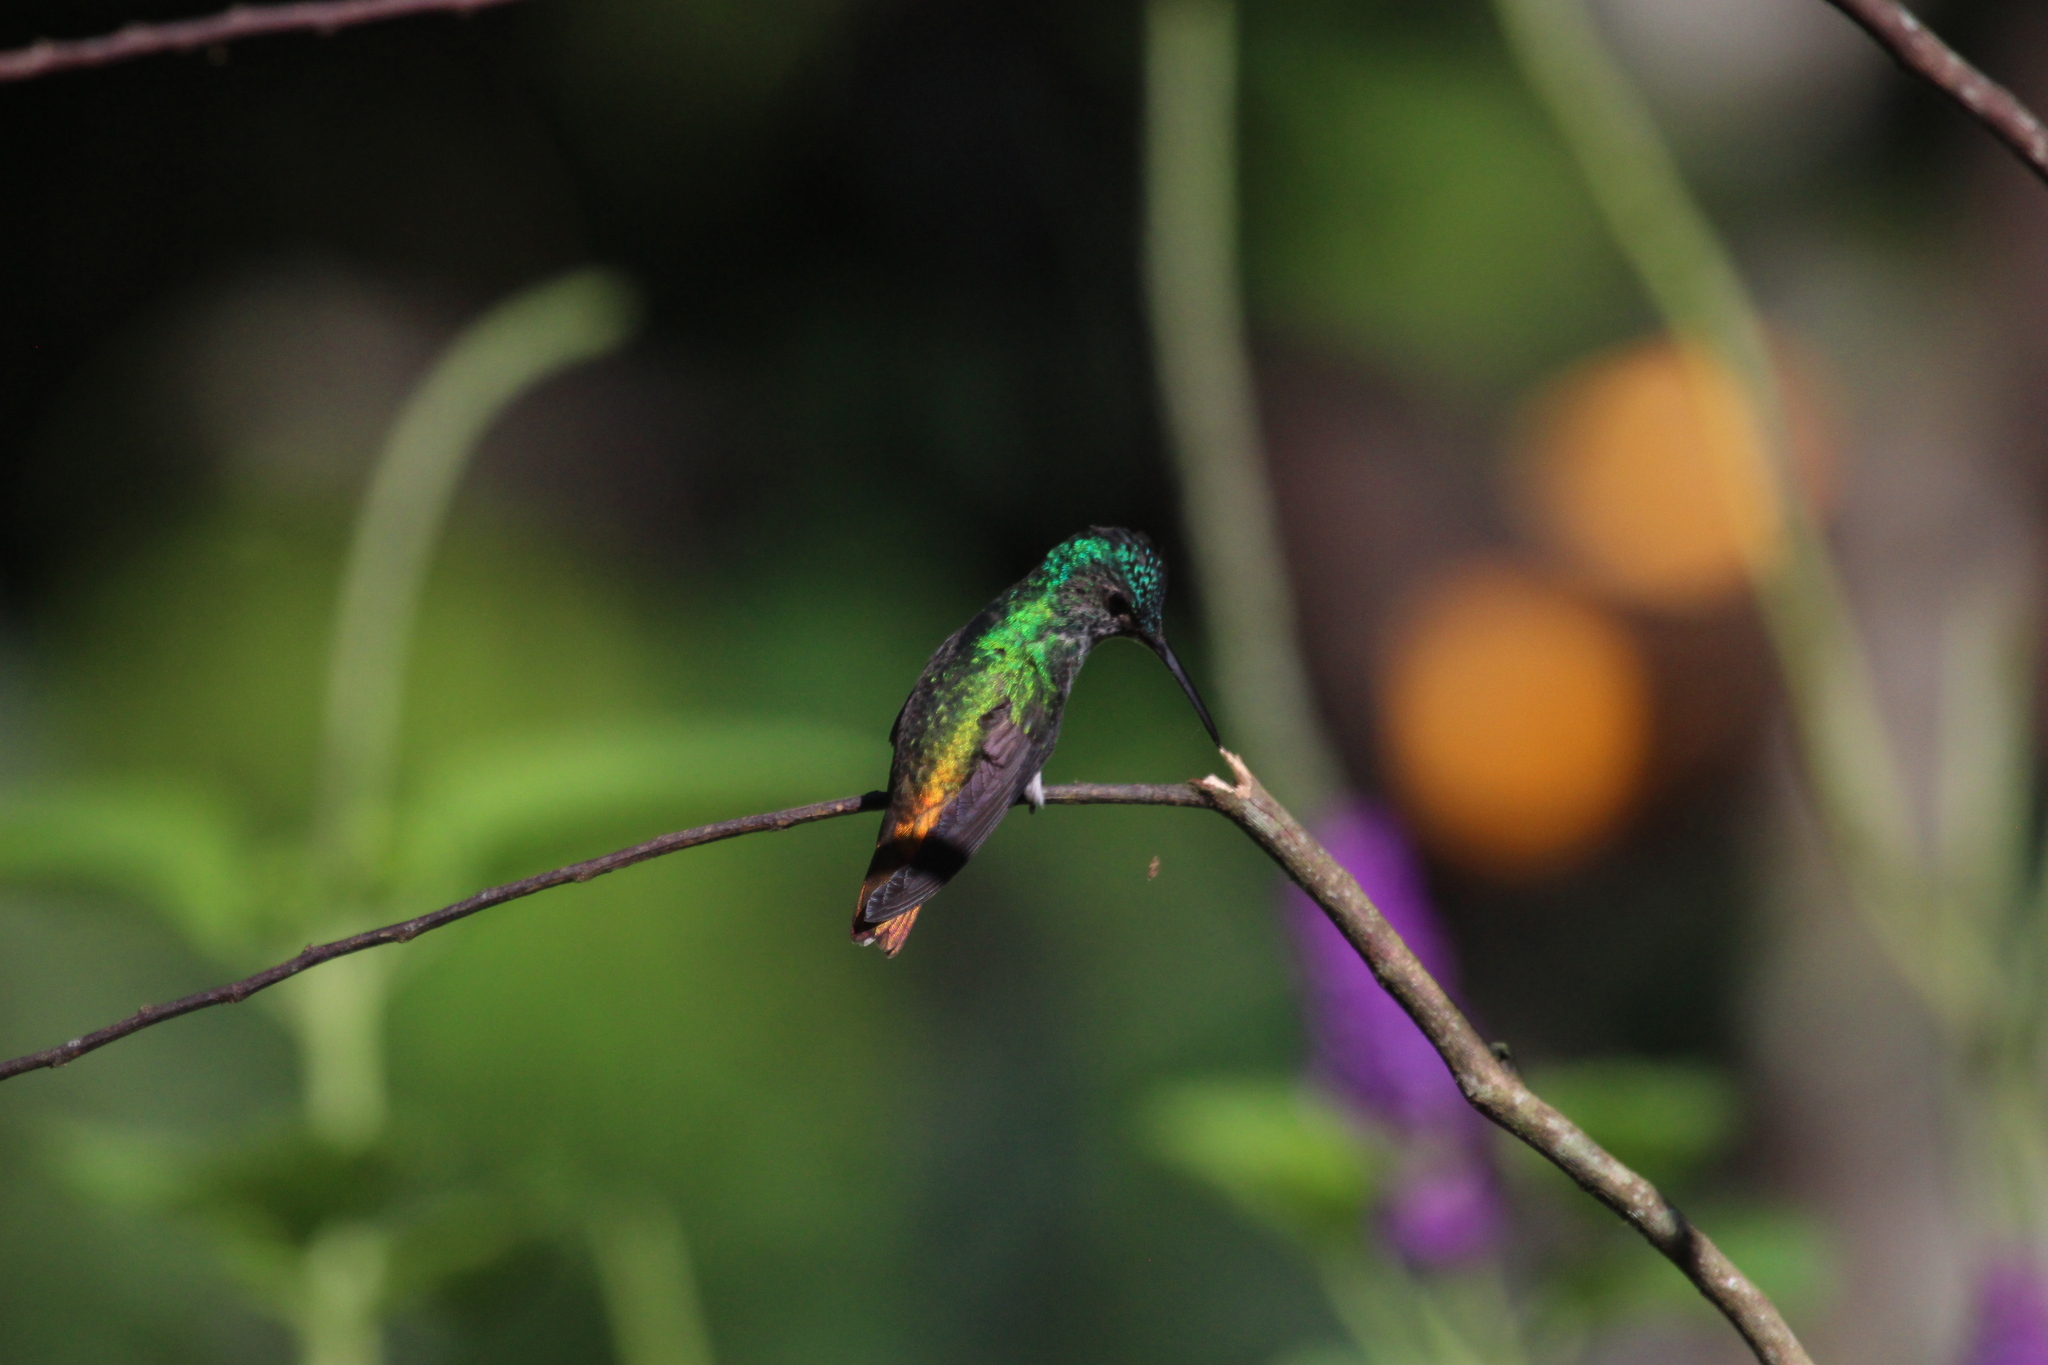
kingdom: Animalia
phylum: Chordata
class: Aves
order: Apodiformes
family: Trochilidae
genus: Chrysuronia
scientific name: Chrysuronia oenone
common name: Golden-tailed sapphire
